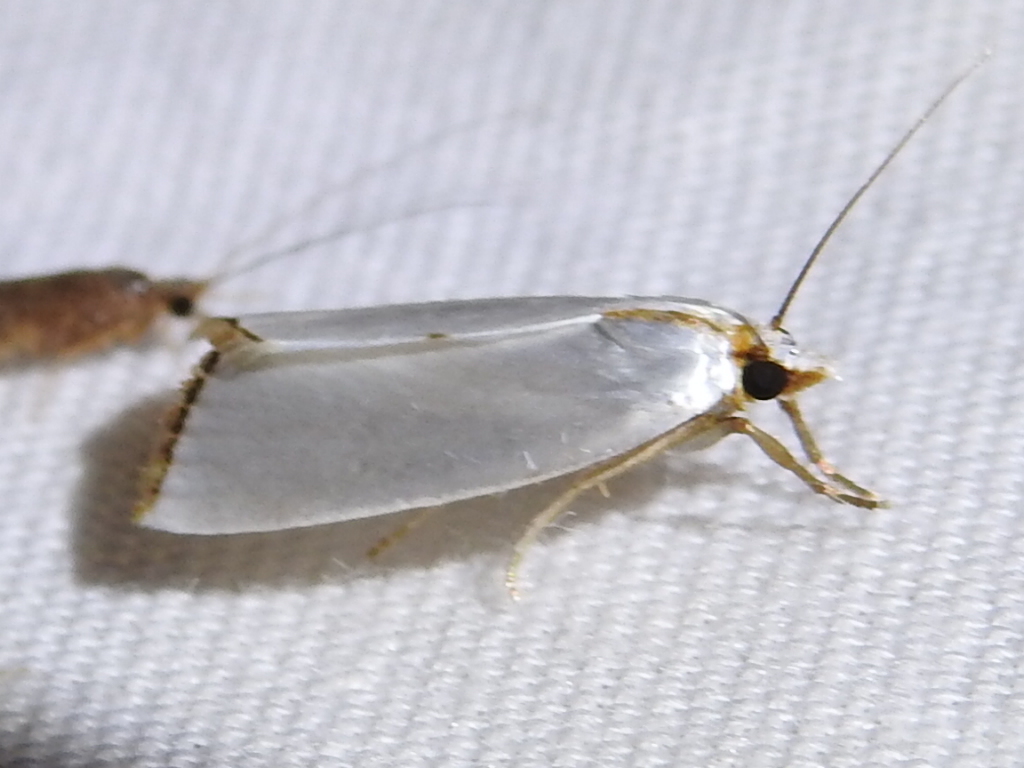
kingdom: Animalia
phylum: Arthropoda
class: Insecta
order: Lepidoptera
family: Crambidae
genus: Argyria
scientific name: Argyria nivalis
